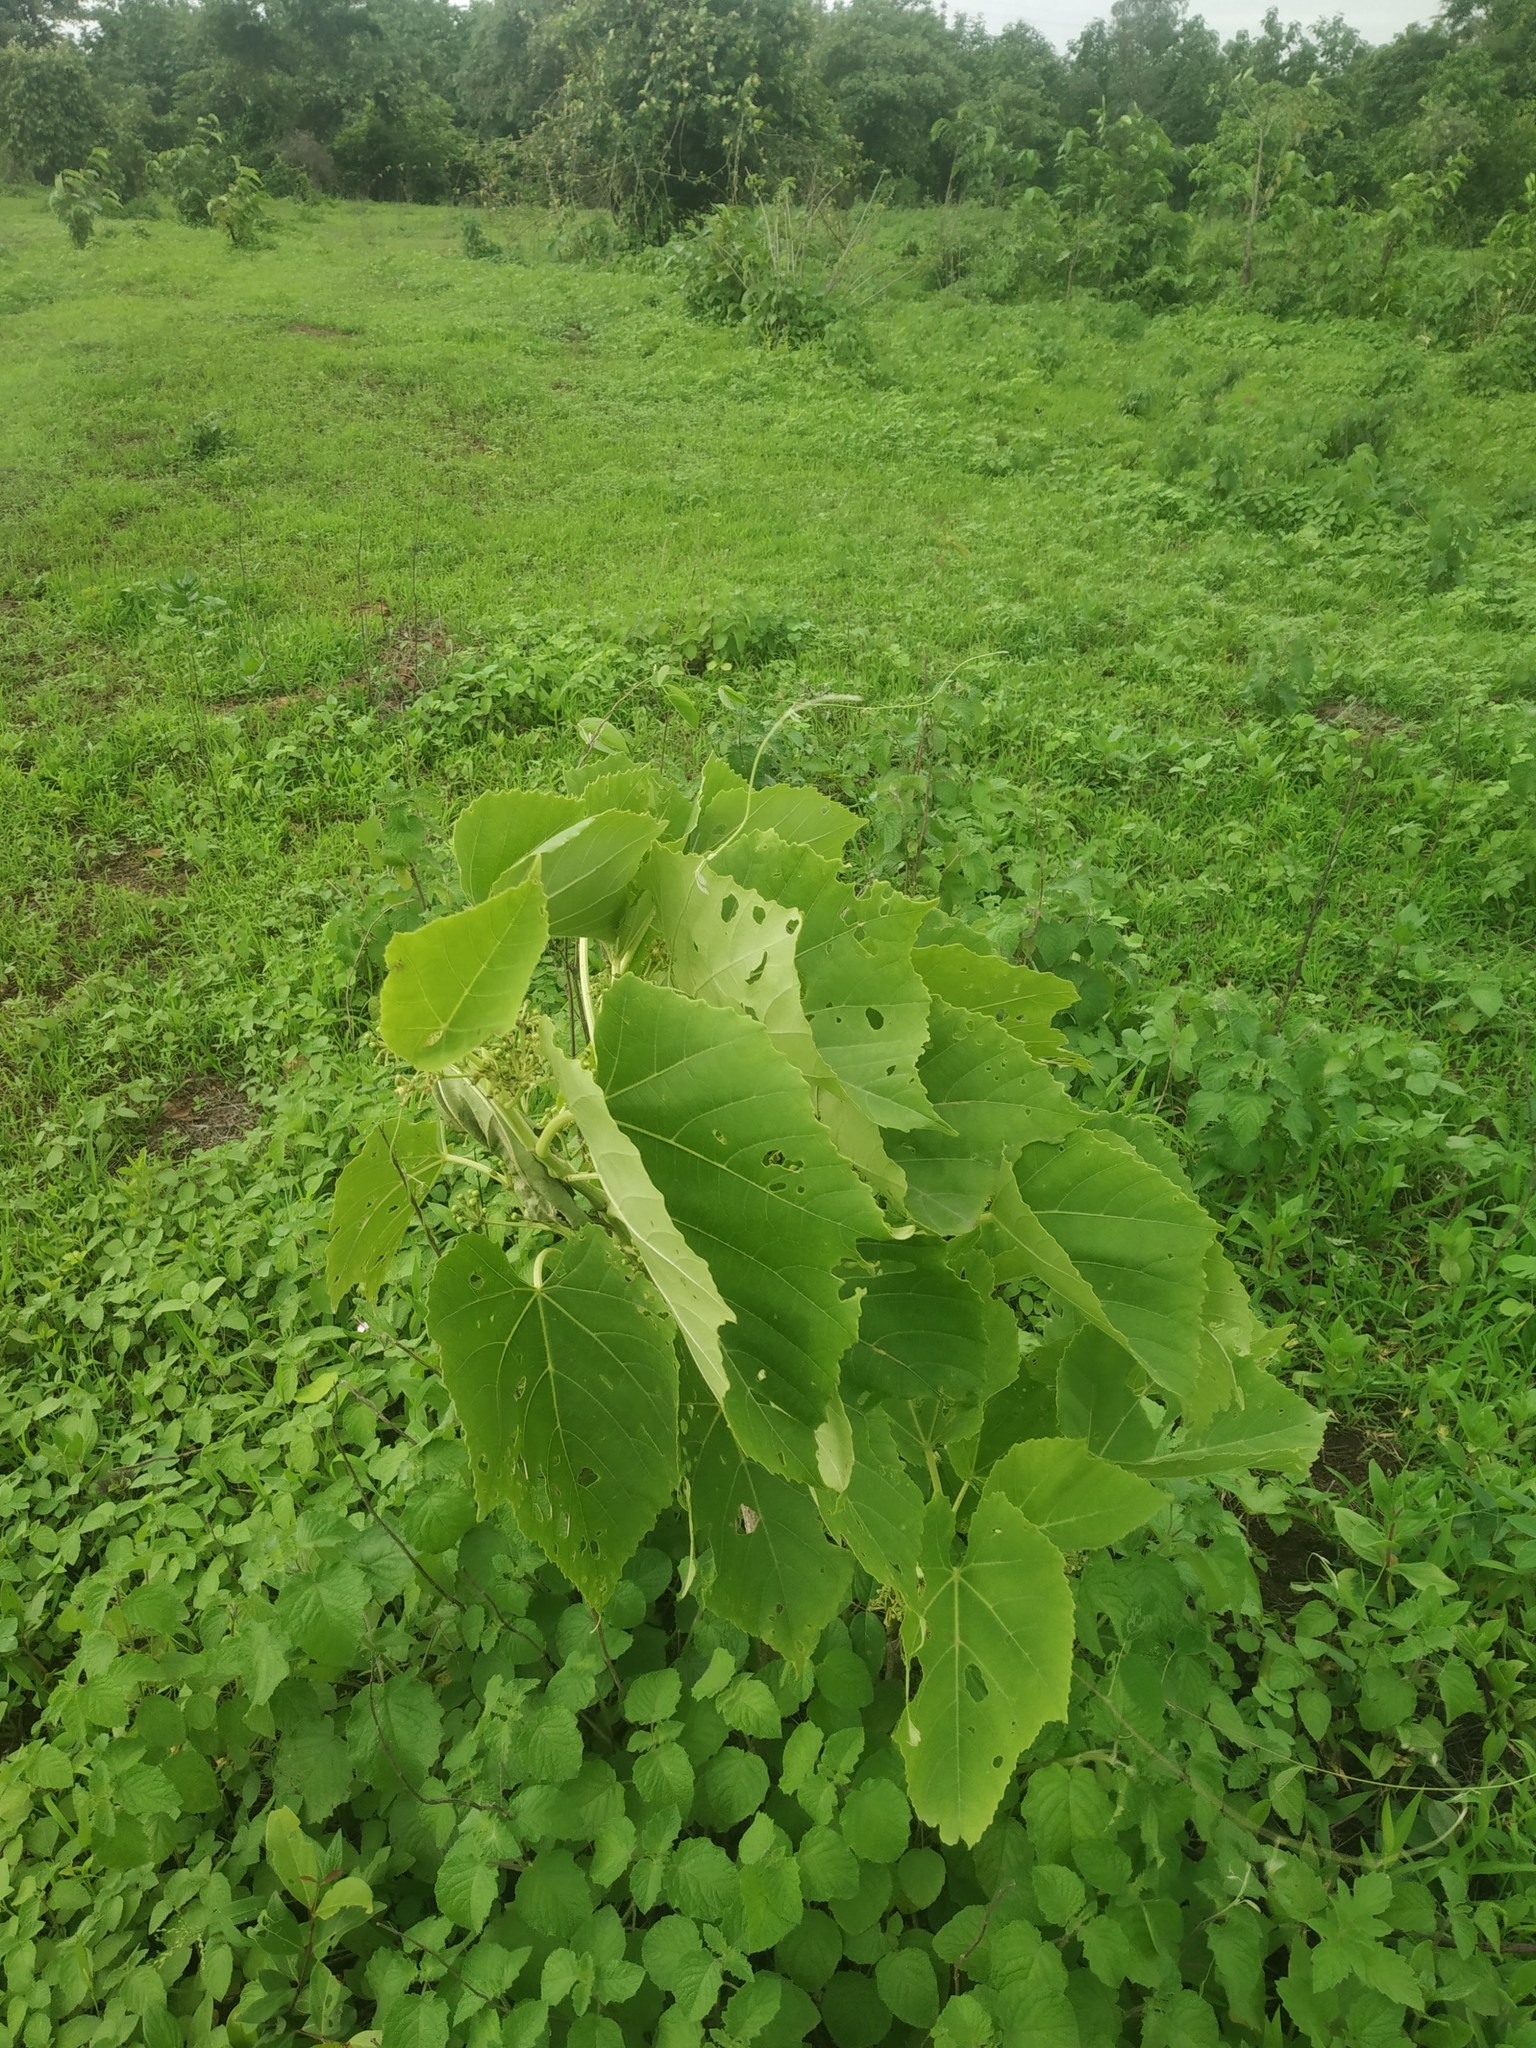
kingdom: Plantae
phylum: Tracheophyta
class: Magnoliopsida
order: Vitales
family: Vitaceae
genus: Cissus
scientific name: Cissus woodrowii
